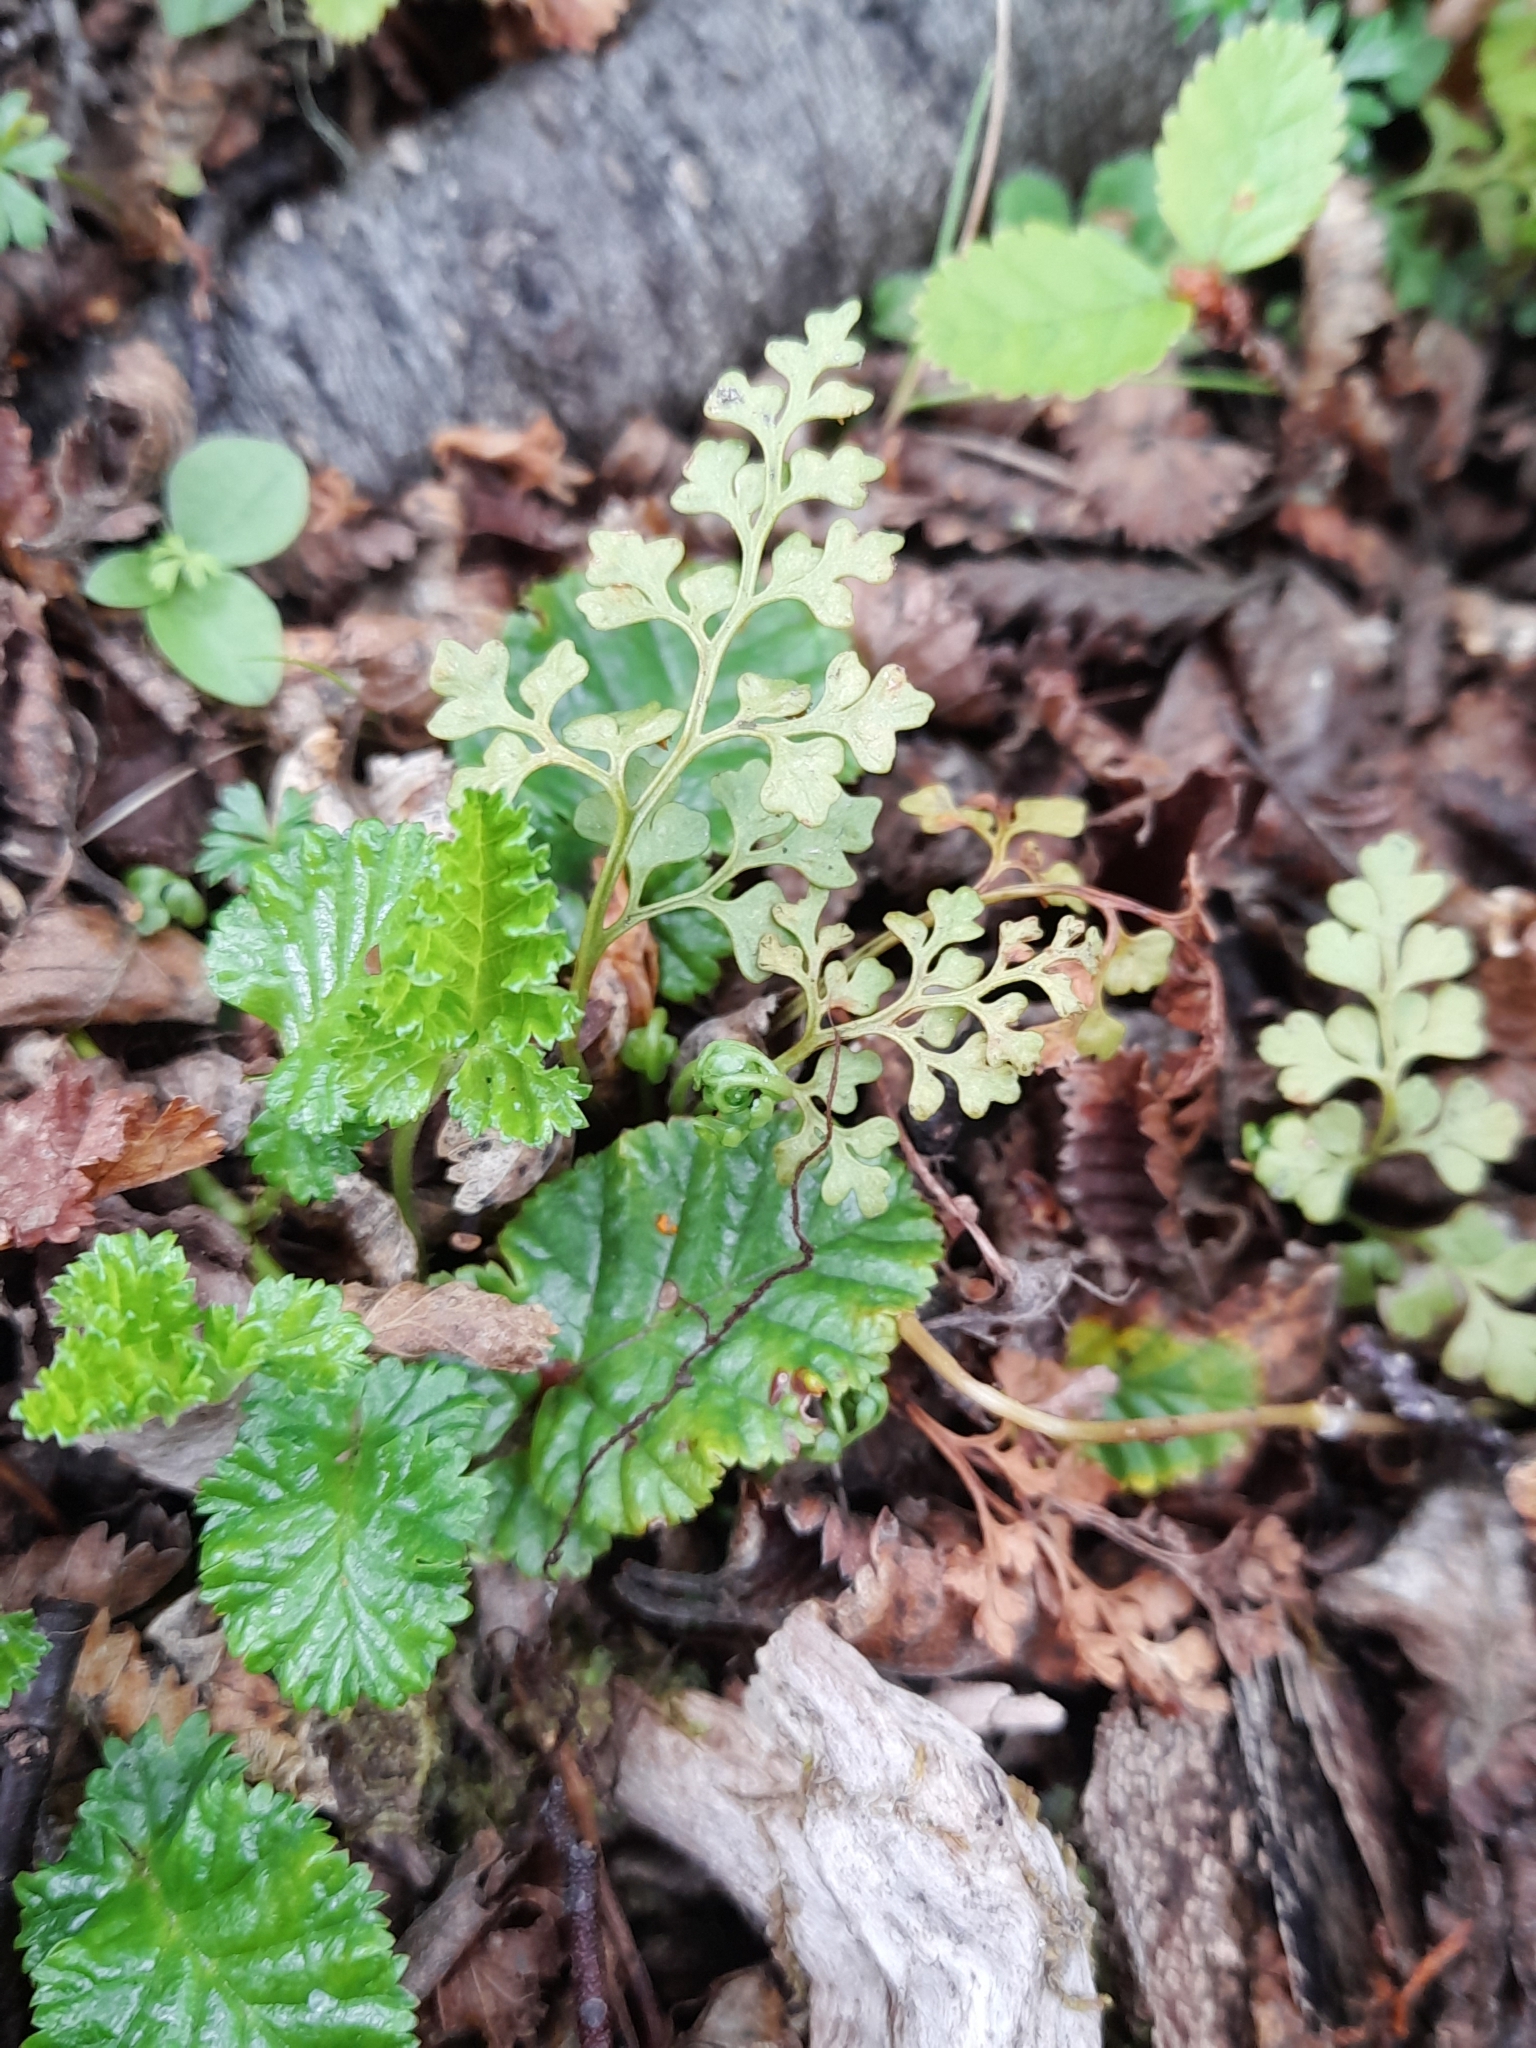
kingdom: Plantae
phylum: Tracheophyta
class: Polypodiopsida
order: Polypodiales
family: Aspleniaceae
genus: Asplenium
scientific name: Asplenium dareoides
